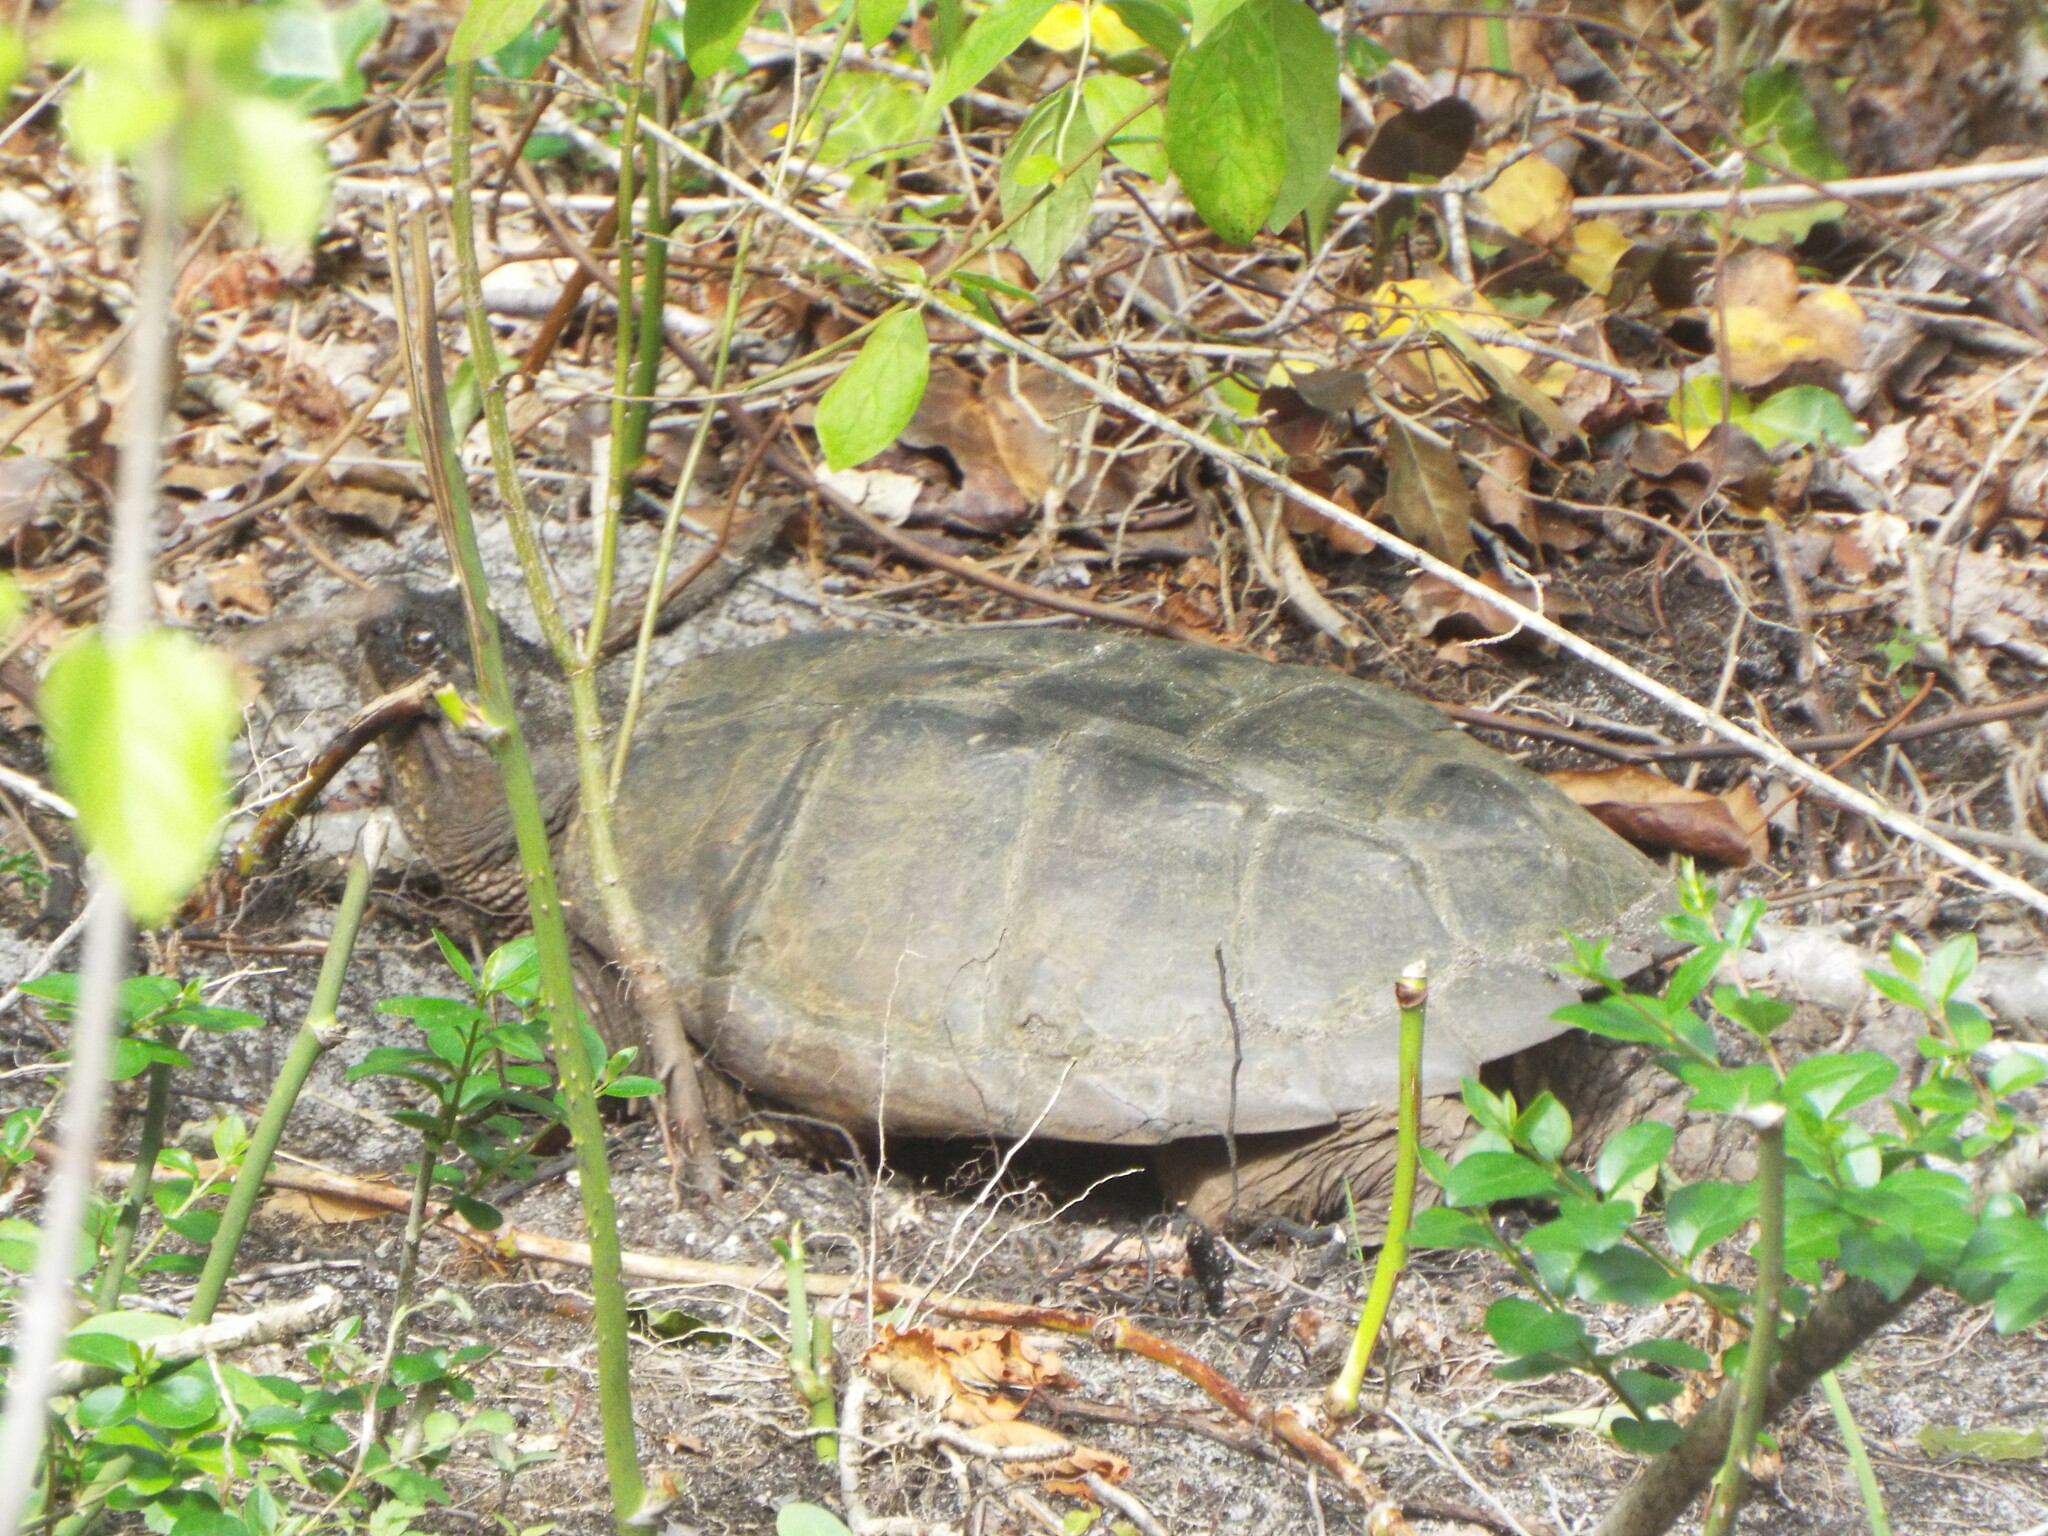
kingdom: Animalia
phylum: Chordata
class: Testudines
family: Chelydridae
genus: Chelydra
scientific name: Chelydra serpentina
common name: Common snapping turtle
